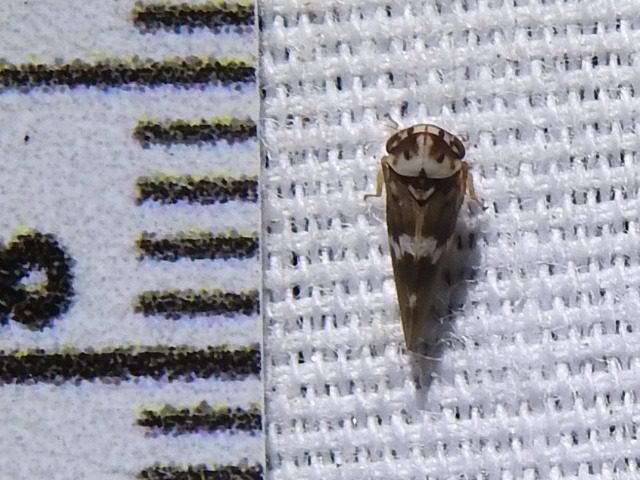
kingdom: Animalia
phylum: Arthropoda
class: Insecta
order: Hemiptera
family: Cicadellidae
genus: Agalliopsis
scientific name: Agalliopsis cervina
